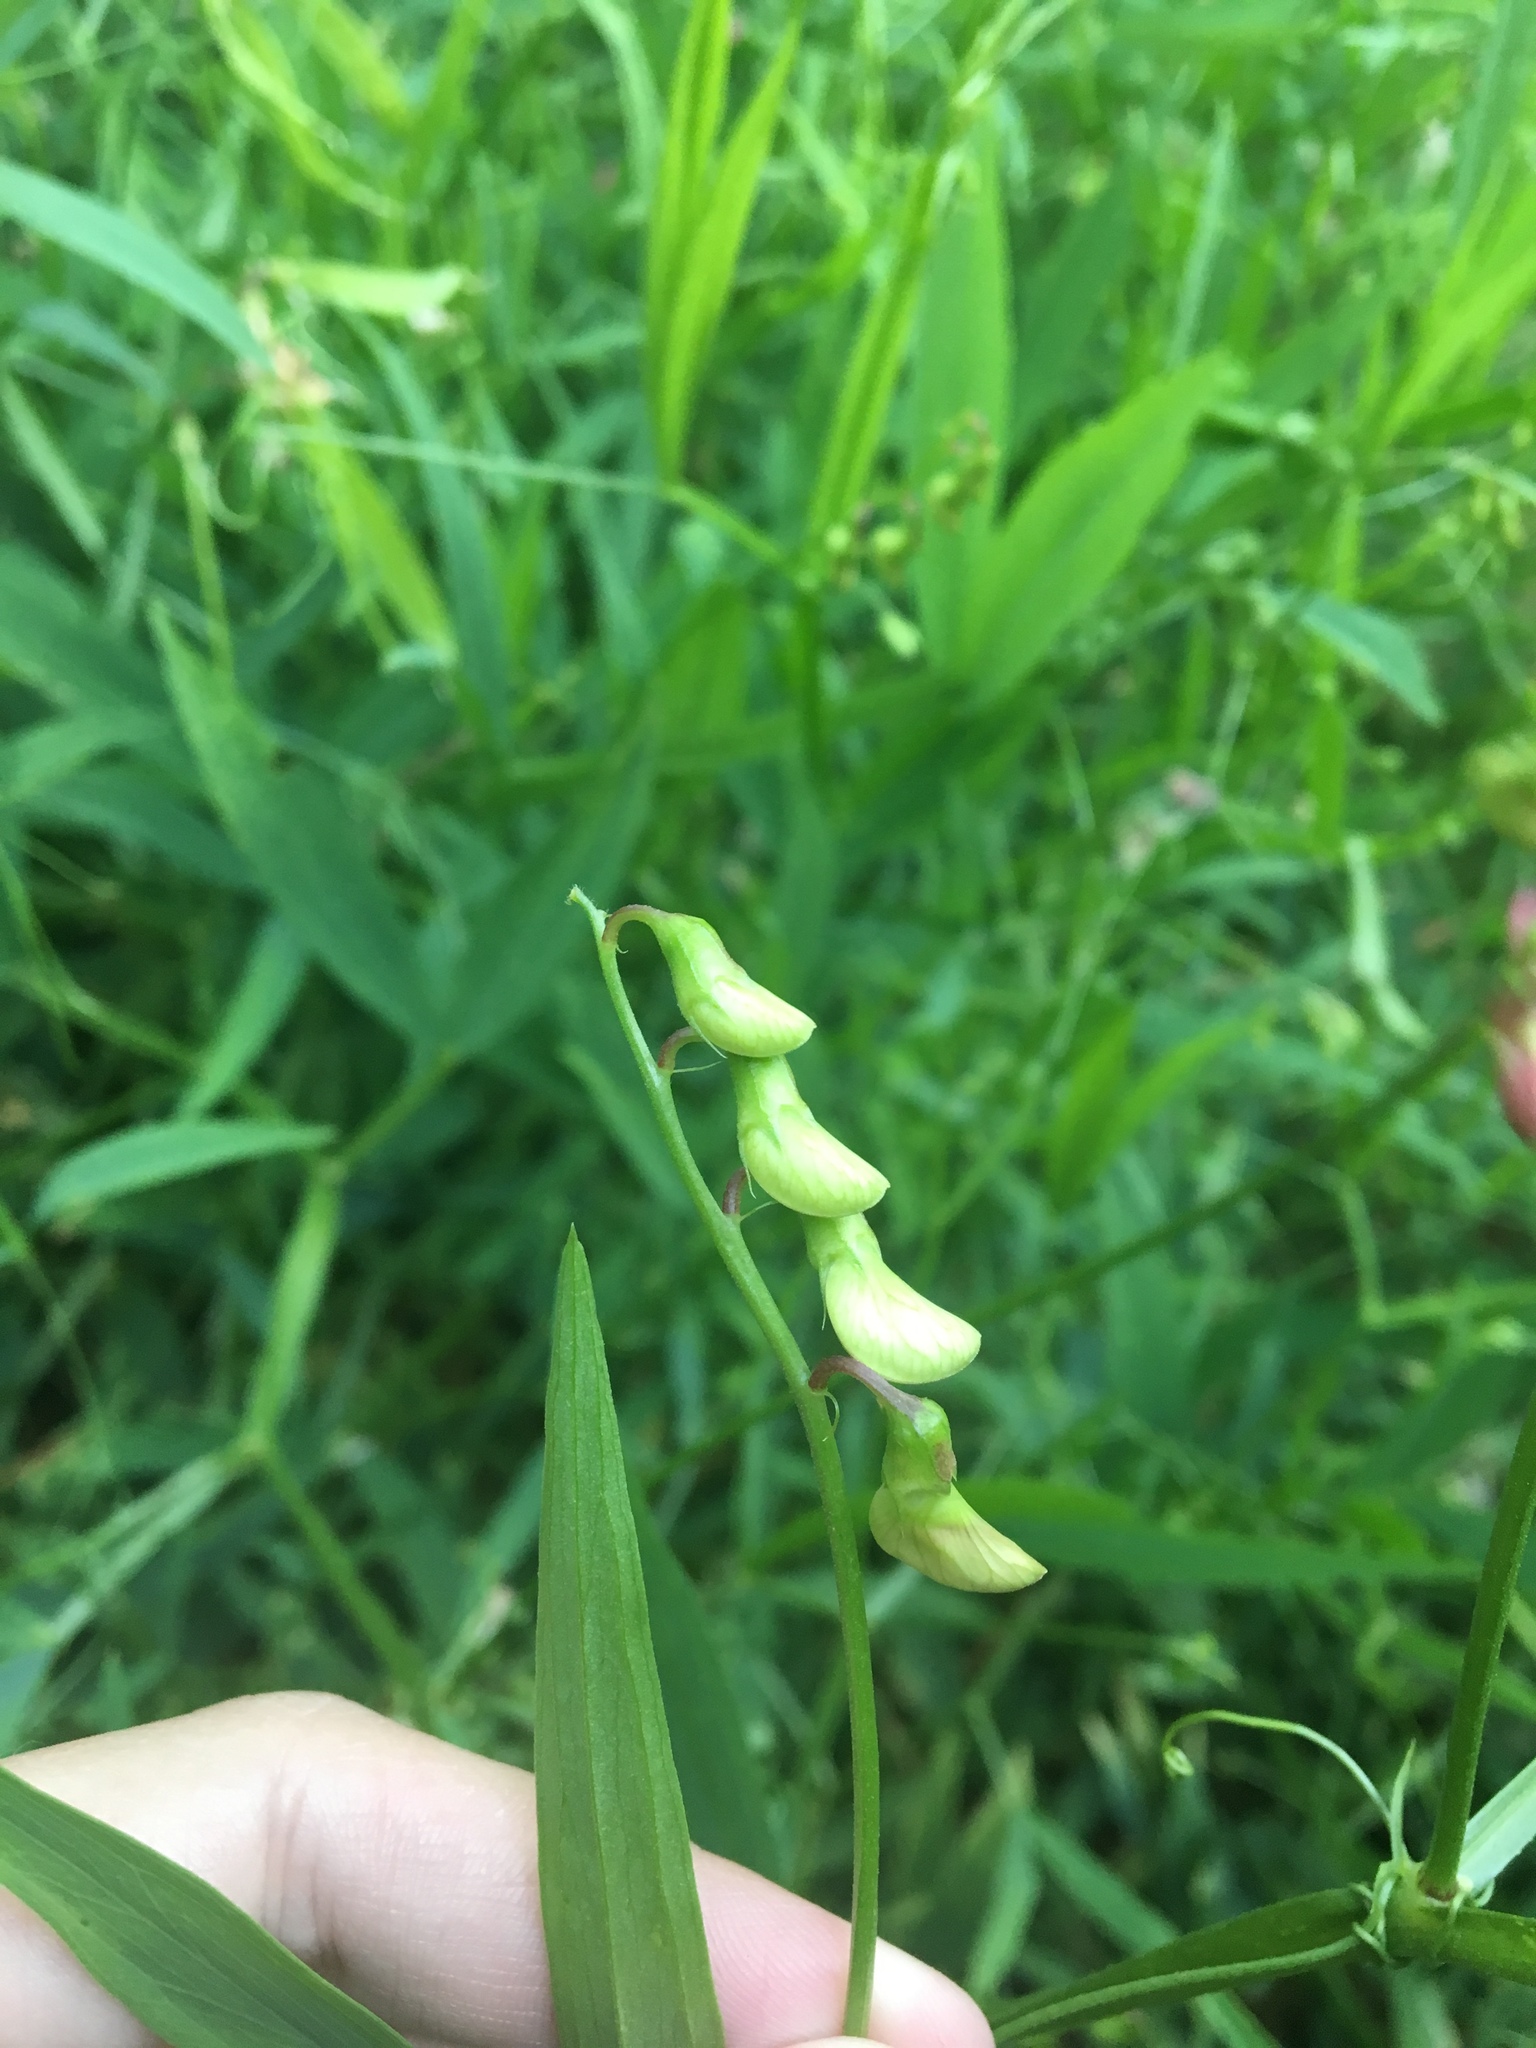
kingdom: Plantae
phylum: Tracheophyta
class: Magnoliopsida
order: Fabales
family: Fabaceae
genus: Lathyrus
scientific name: Lathyrus sylvestris
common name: Flat pea
